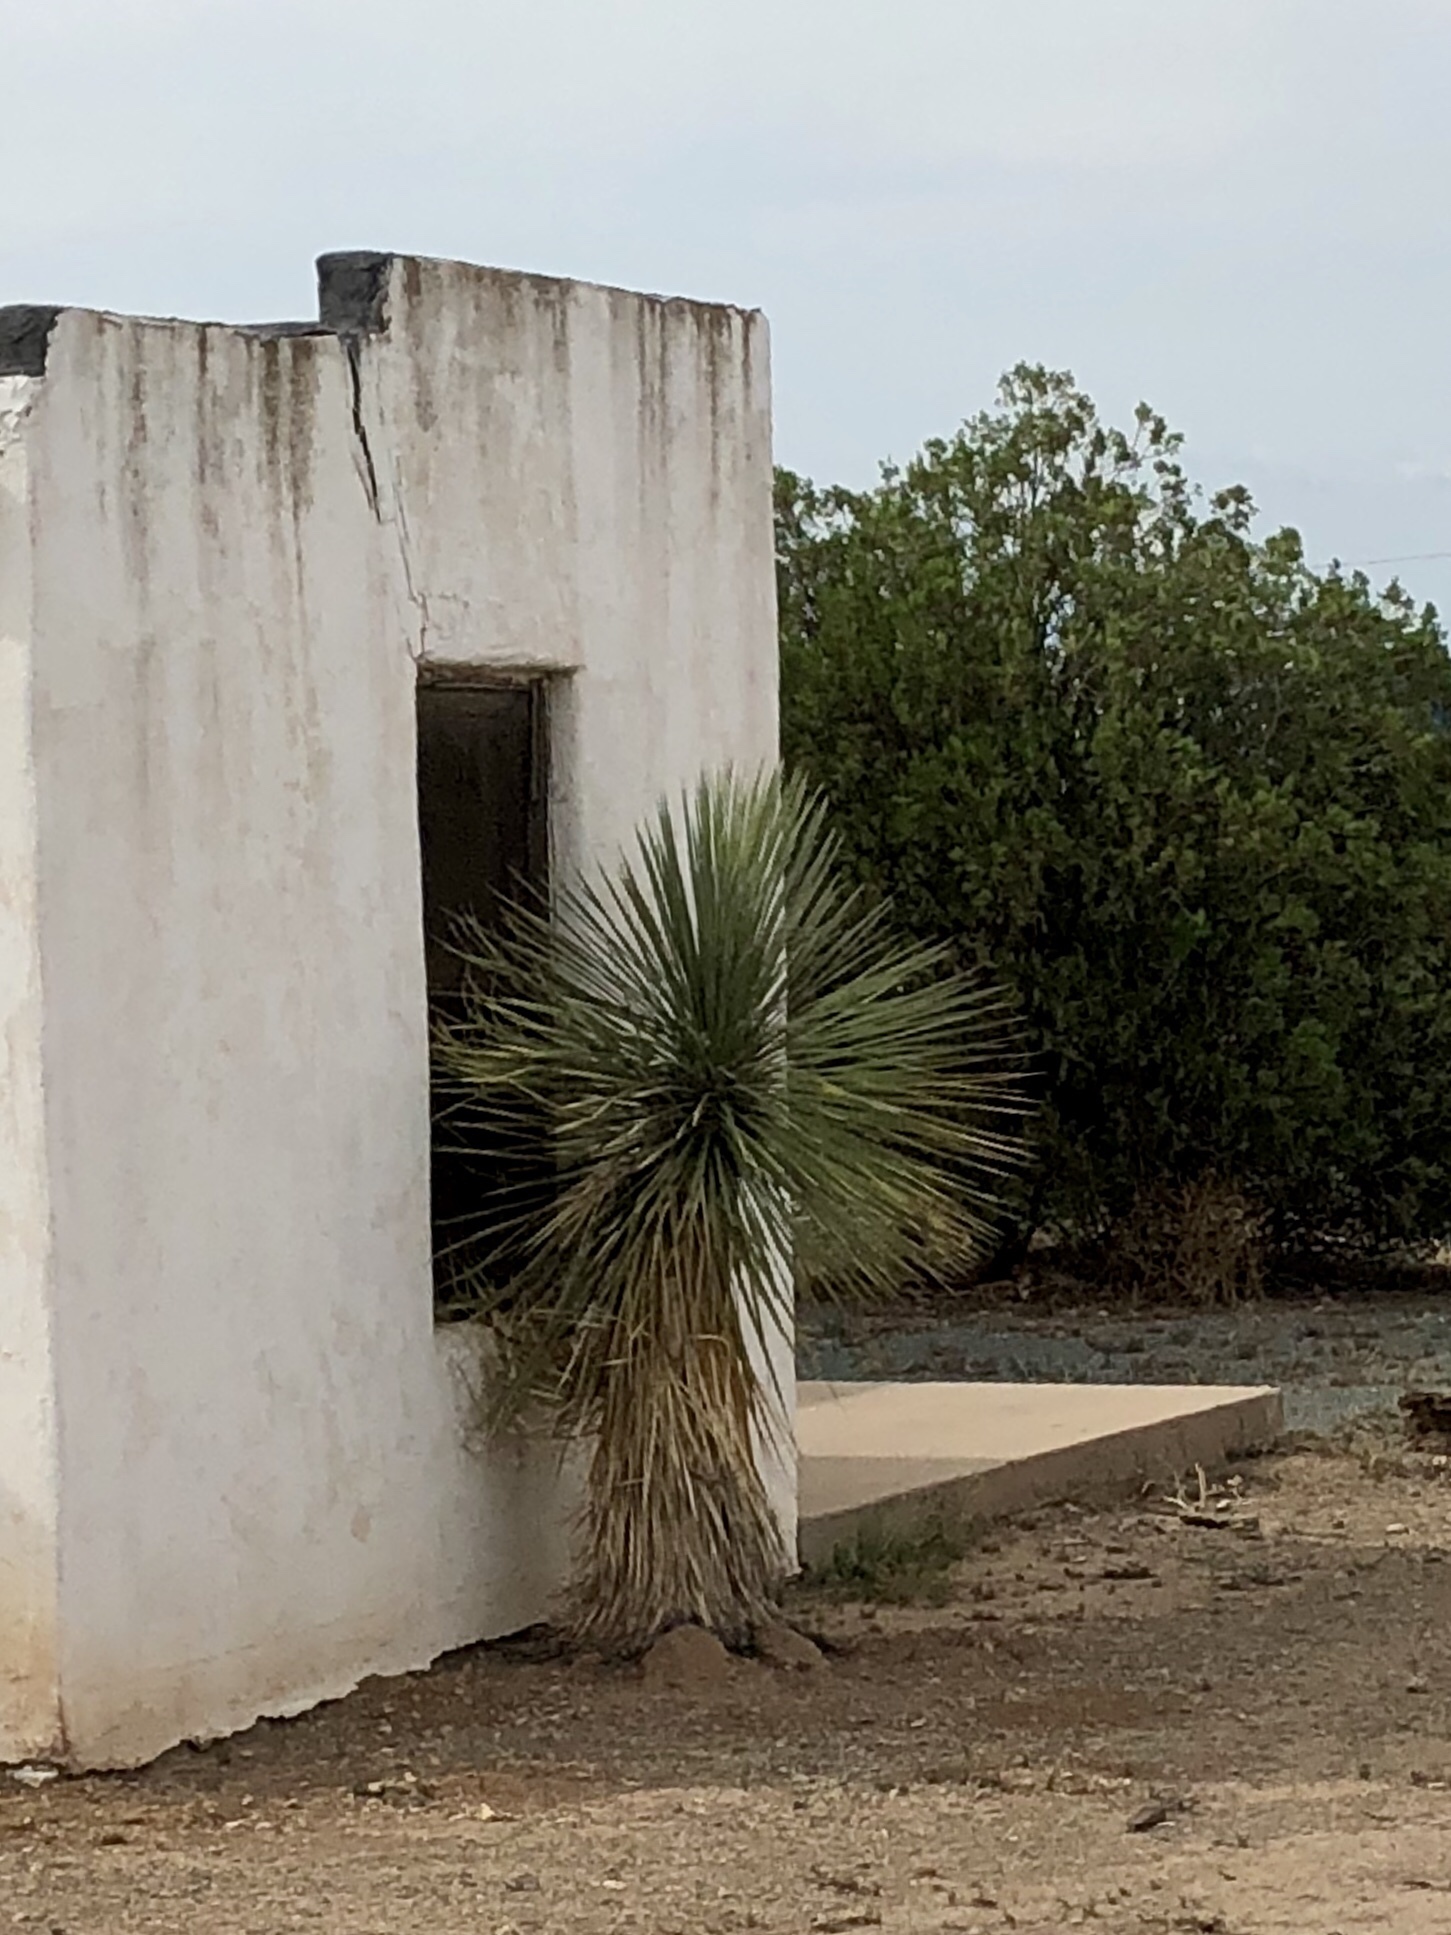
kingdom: Plantae
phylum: Tracheophyta
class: Liliopsida
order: Asparagales
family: Asparagaceae
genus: Yucca
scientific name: Yucca elata
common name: Palmella
